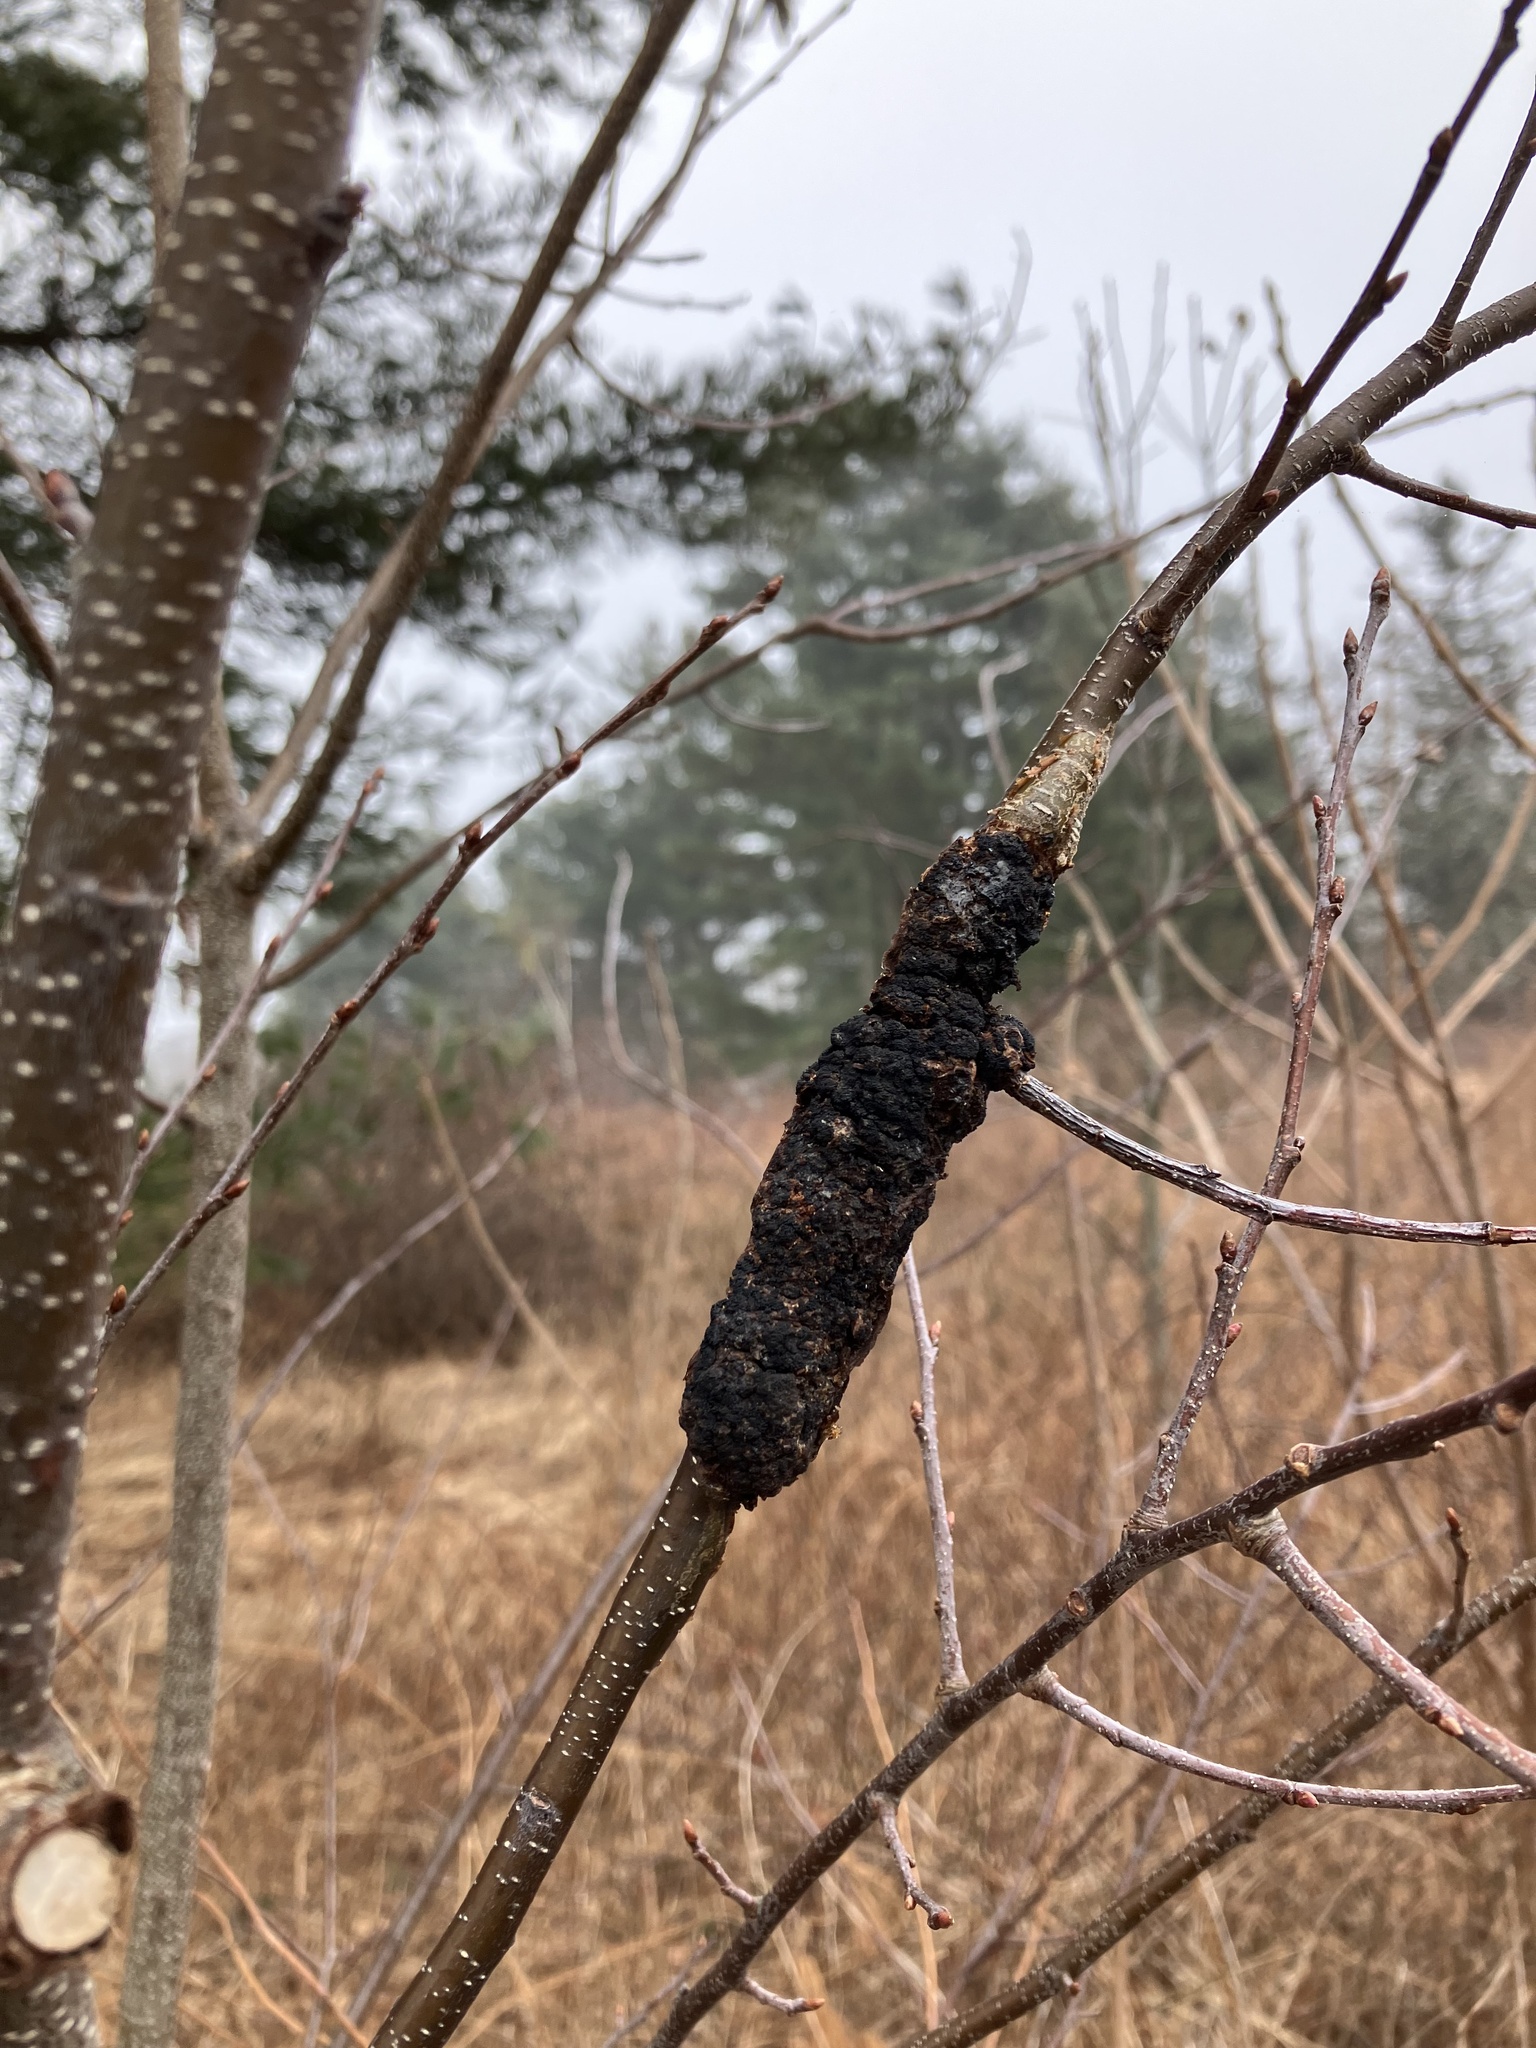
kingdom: Fungi
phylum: Ascomycota
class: Dothideomycetes
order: Venturiales
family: Venturiaceae
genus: Apiosporina
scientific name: Apiosporina morbosa
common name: Black knot
